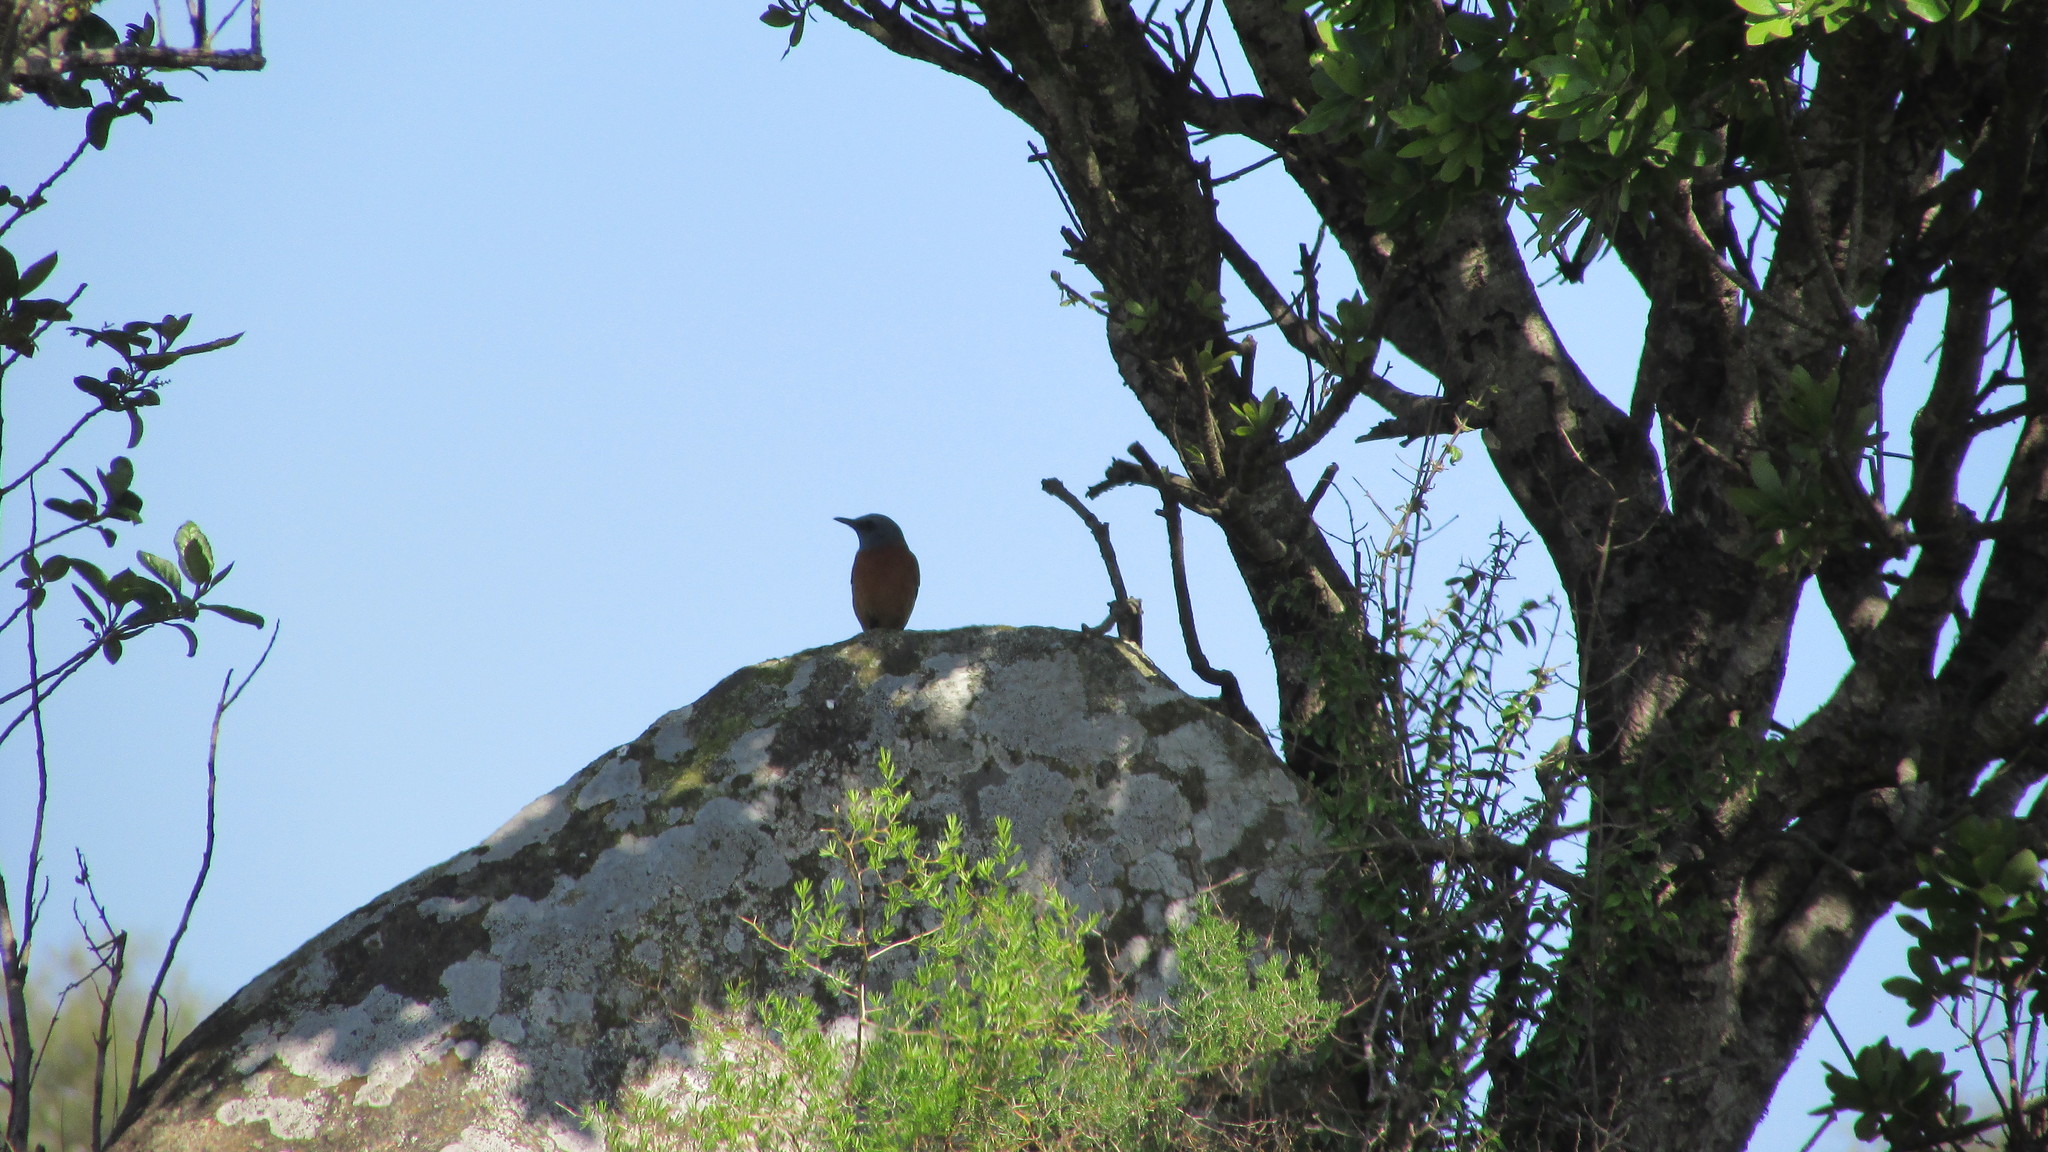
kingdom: Animalia
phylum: Chordata
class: Aves
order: Passeriformes
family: Muscicapidae
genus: Monticola
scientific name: Monticola rupestris
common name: Cape rock thrush
